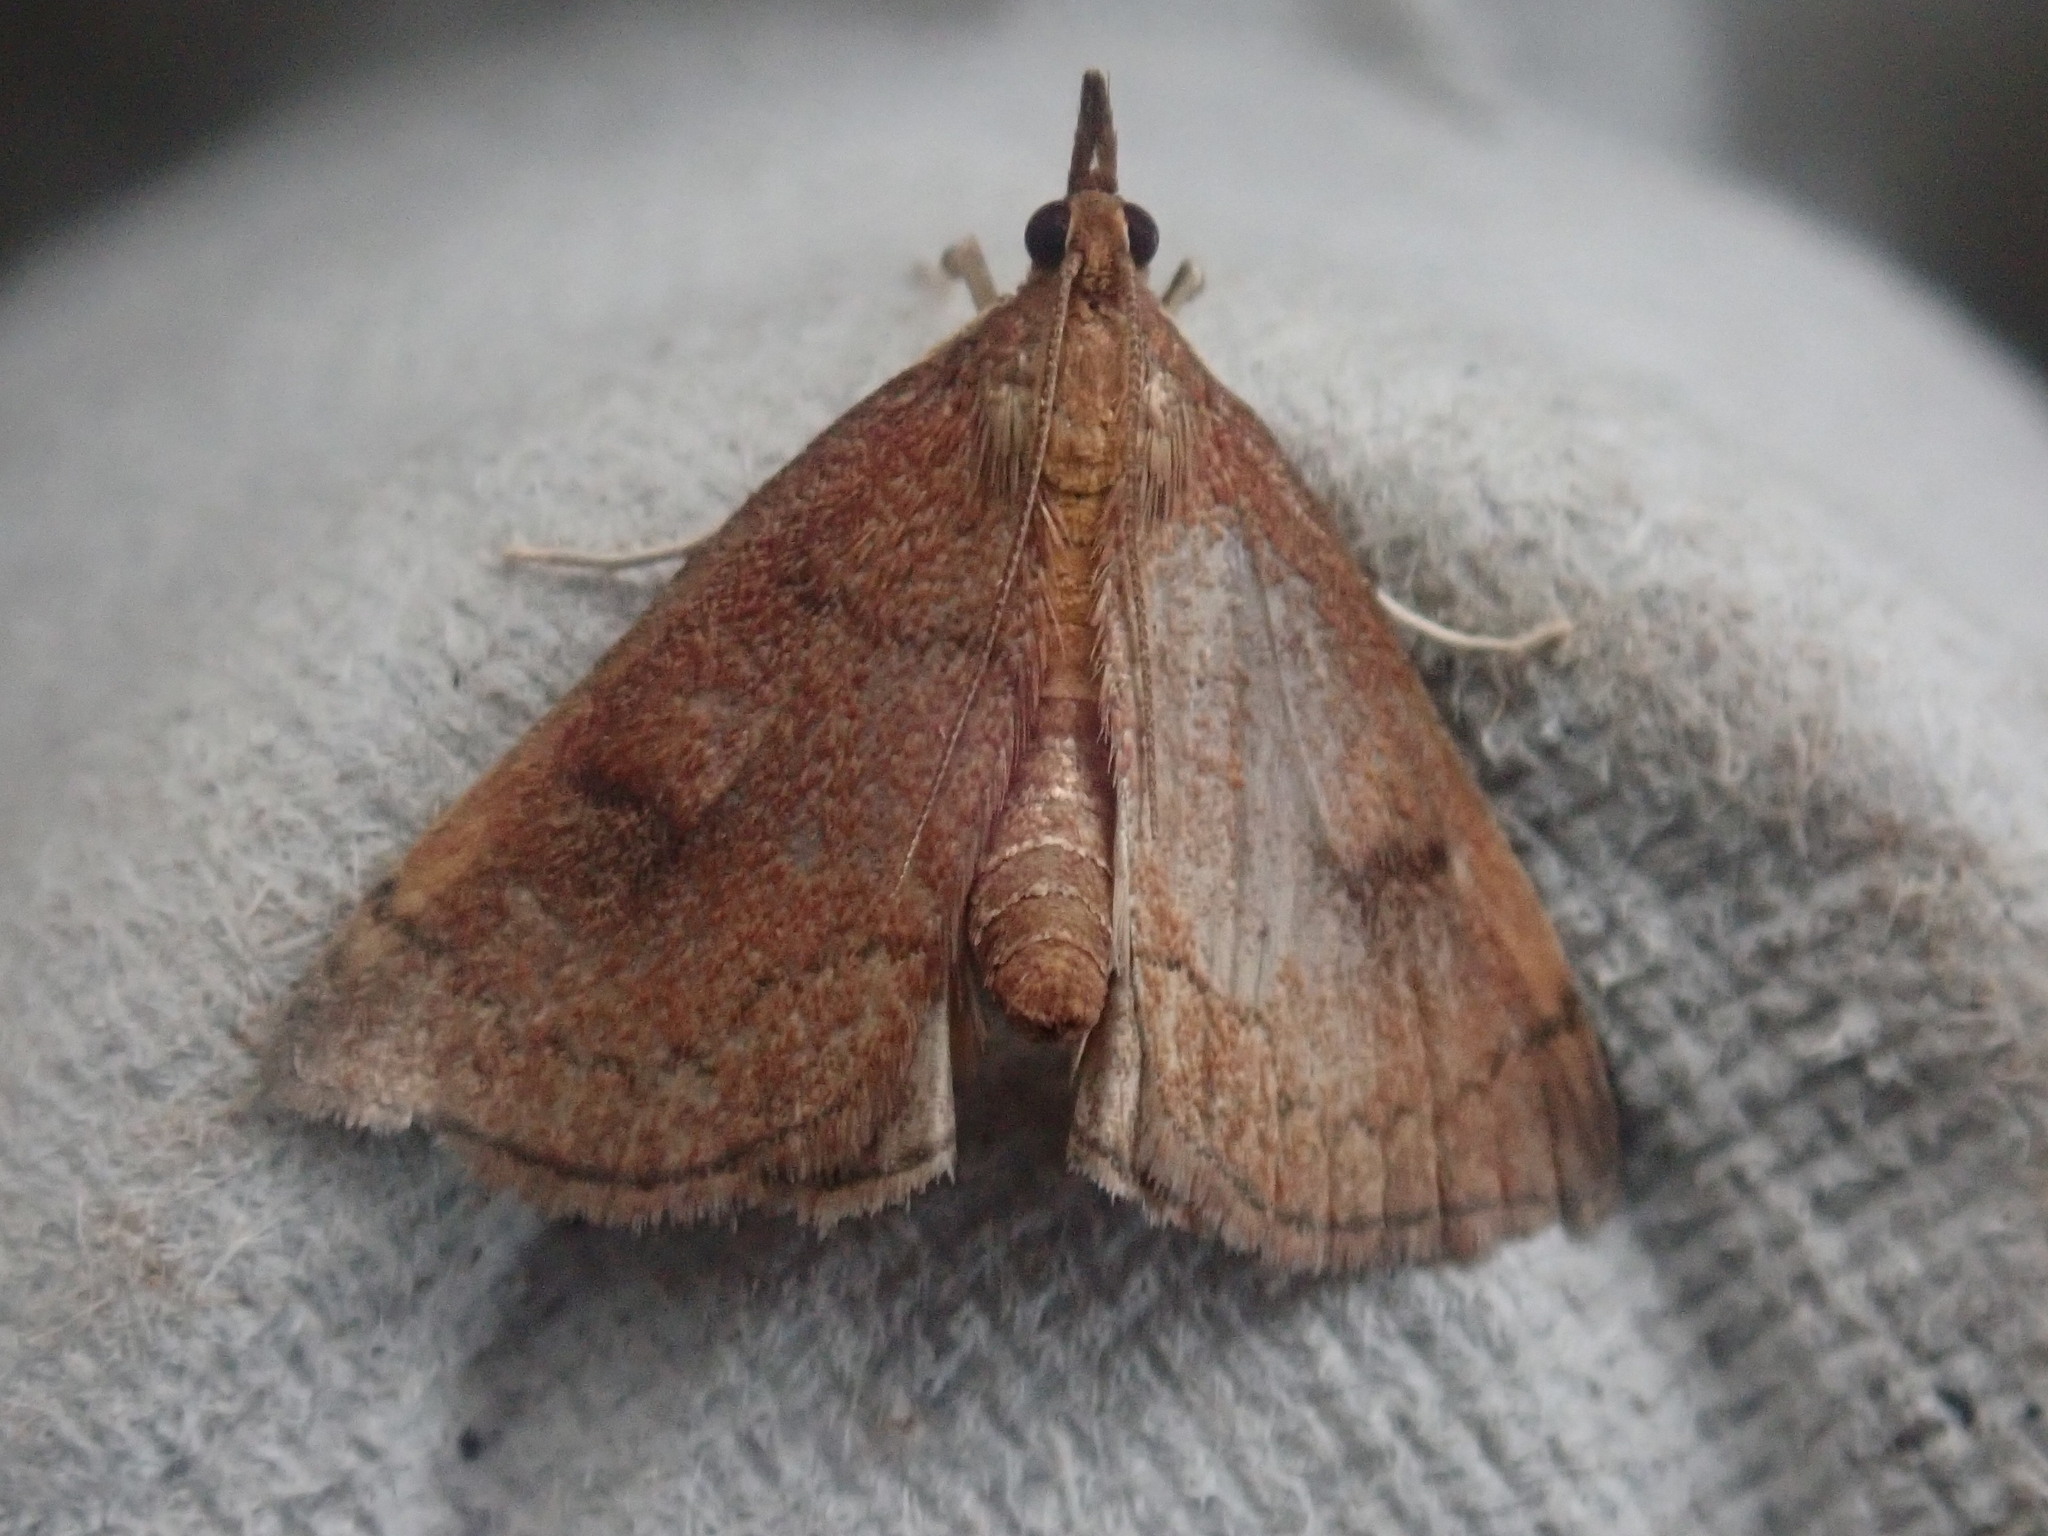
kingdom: Animalia
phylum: Arthropoda
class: Insecta
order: Lepidoptera
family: Crambidae
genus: Fumibotys
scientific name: Fumibotys fumalis
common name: Mint root borer moth
